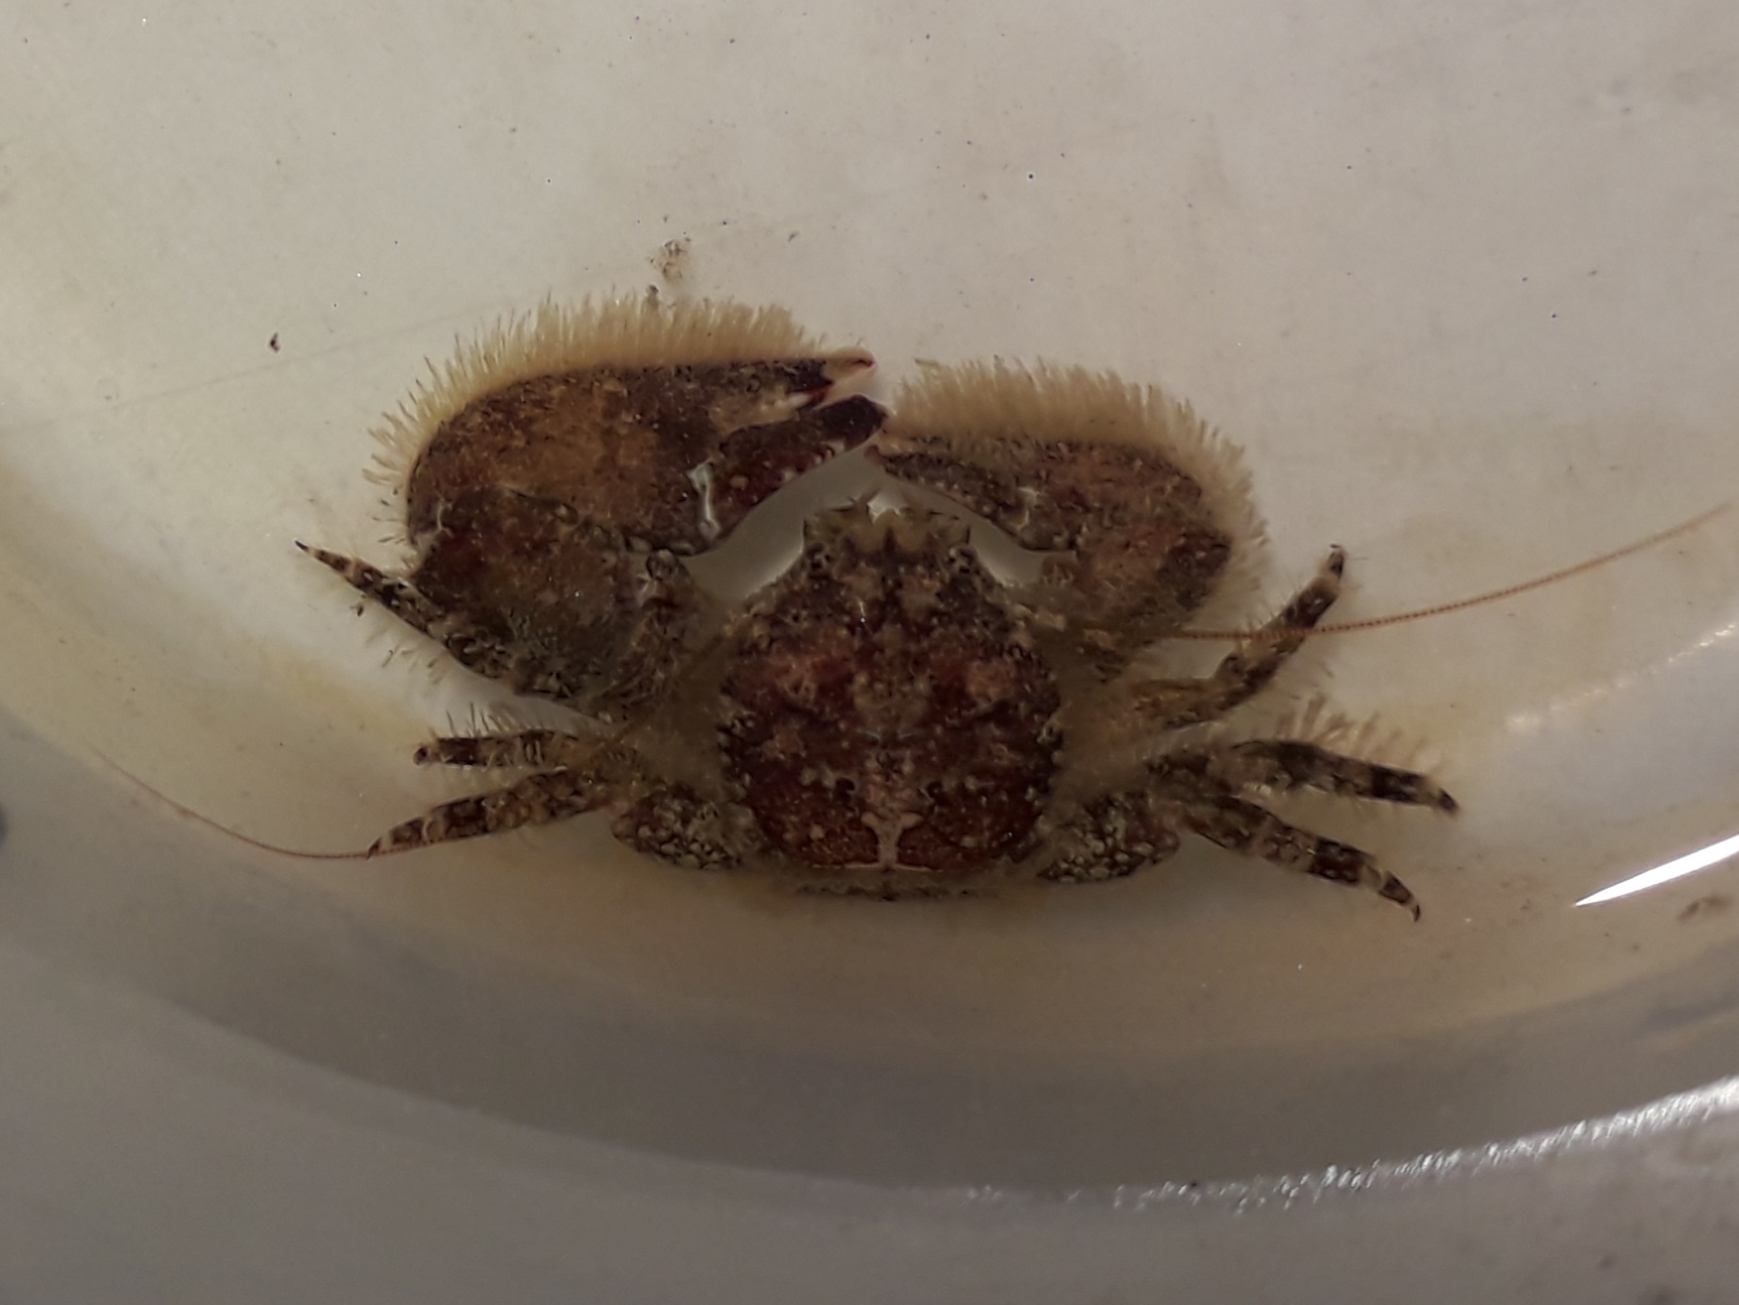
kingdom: Animalia
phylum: Arthropoda
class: Malacostraca
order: Decapoda
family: Porcellanidae
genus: Porcellana
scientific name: Porcellana platycheles
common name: Porcelain crab
